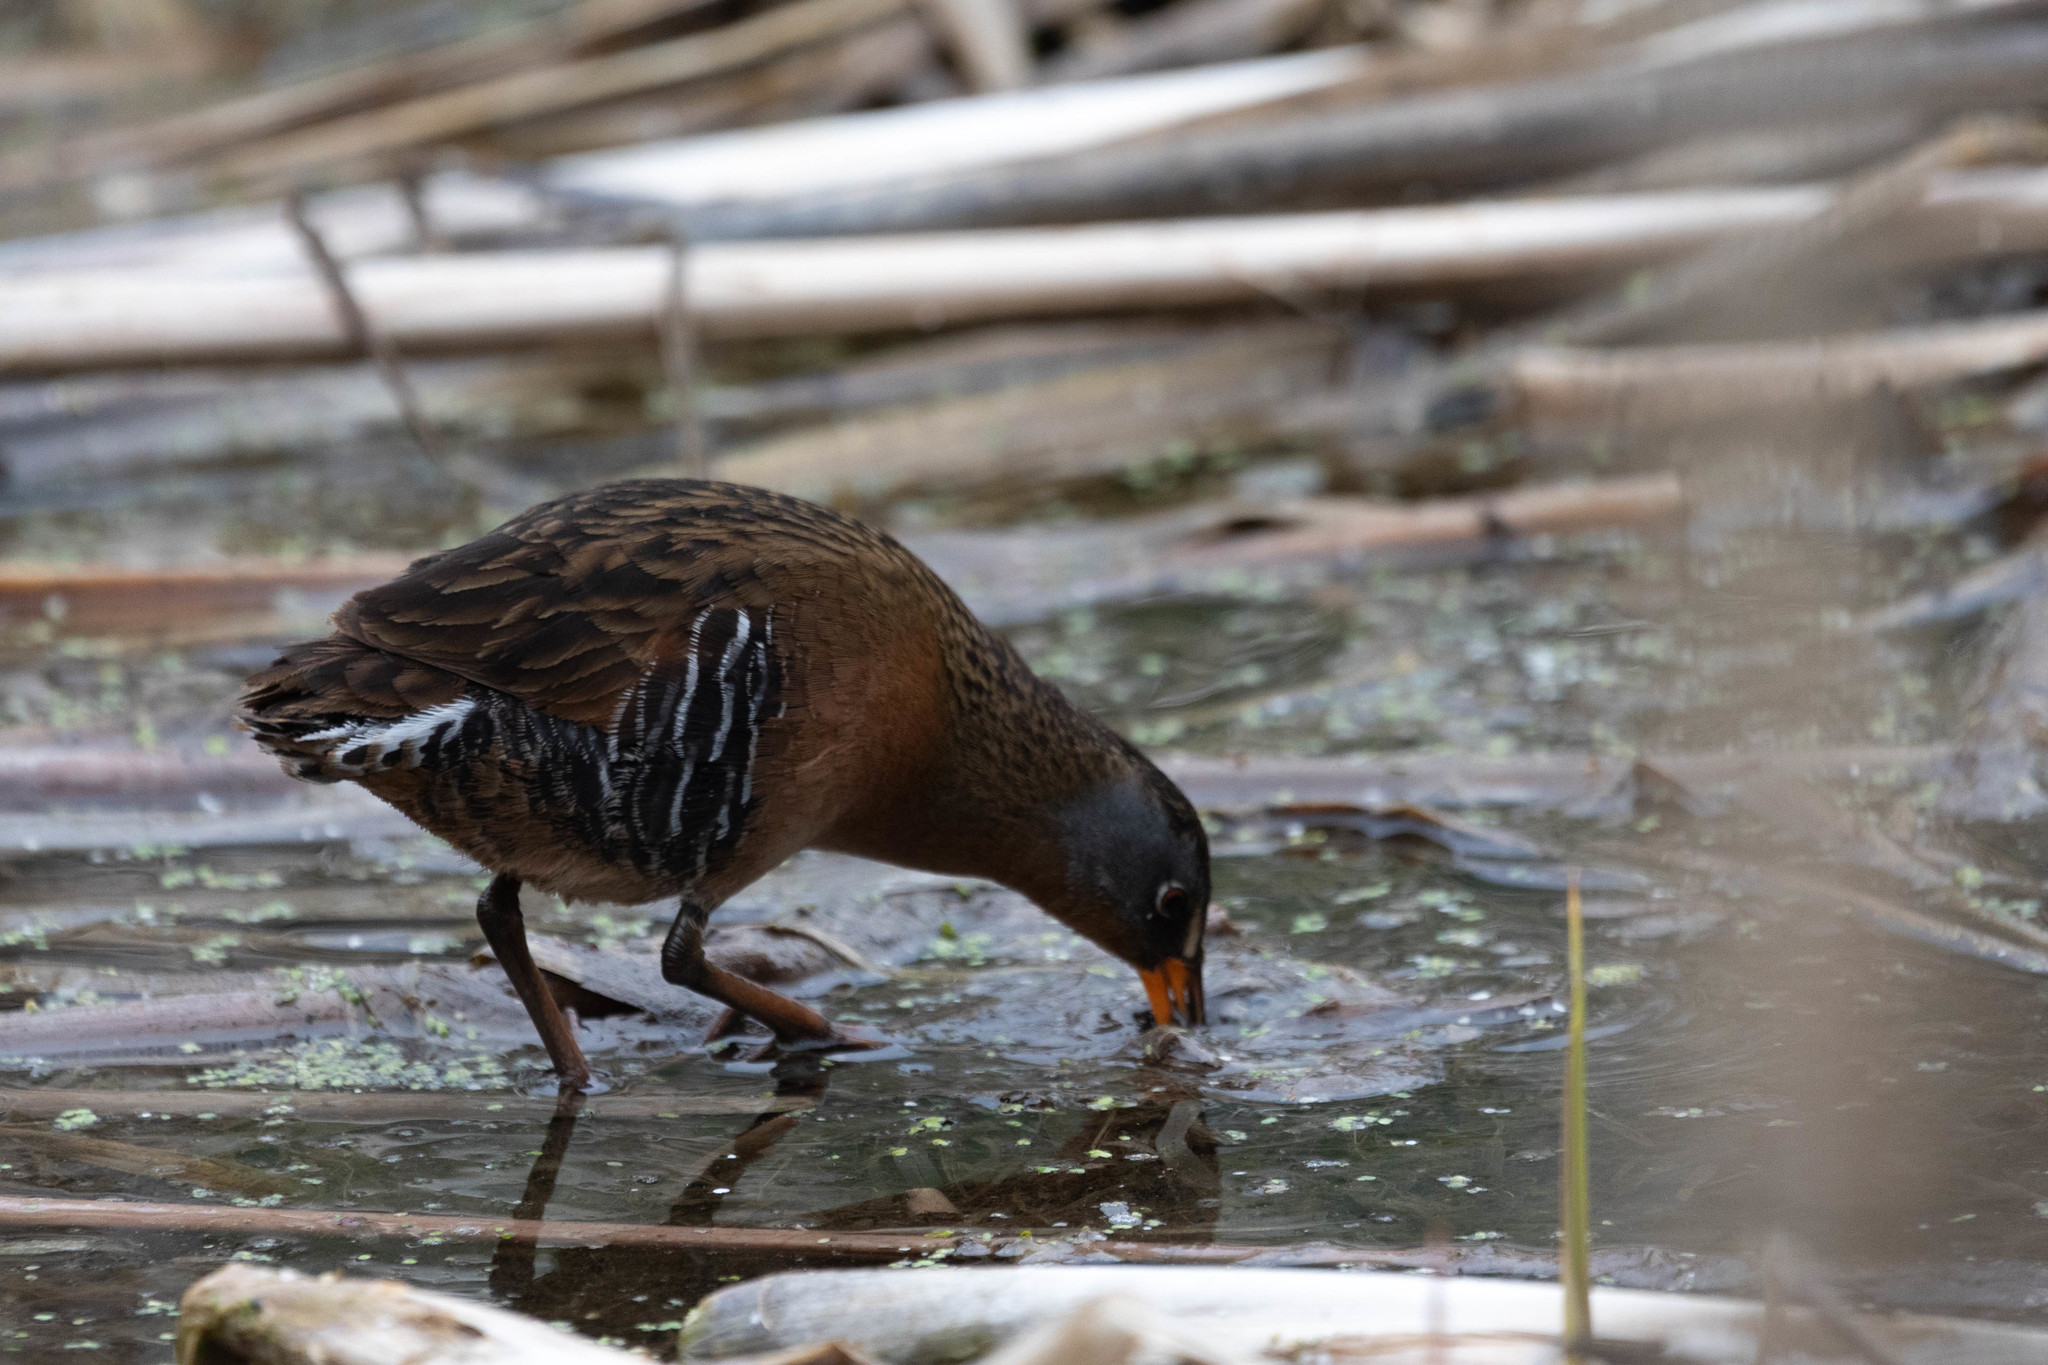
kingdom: Animalia
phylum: Chordata
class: Aves
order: Gruiformes
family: Rallidae
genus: Rallus
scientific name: Rallus limicola
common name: Virginia rail
